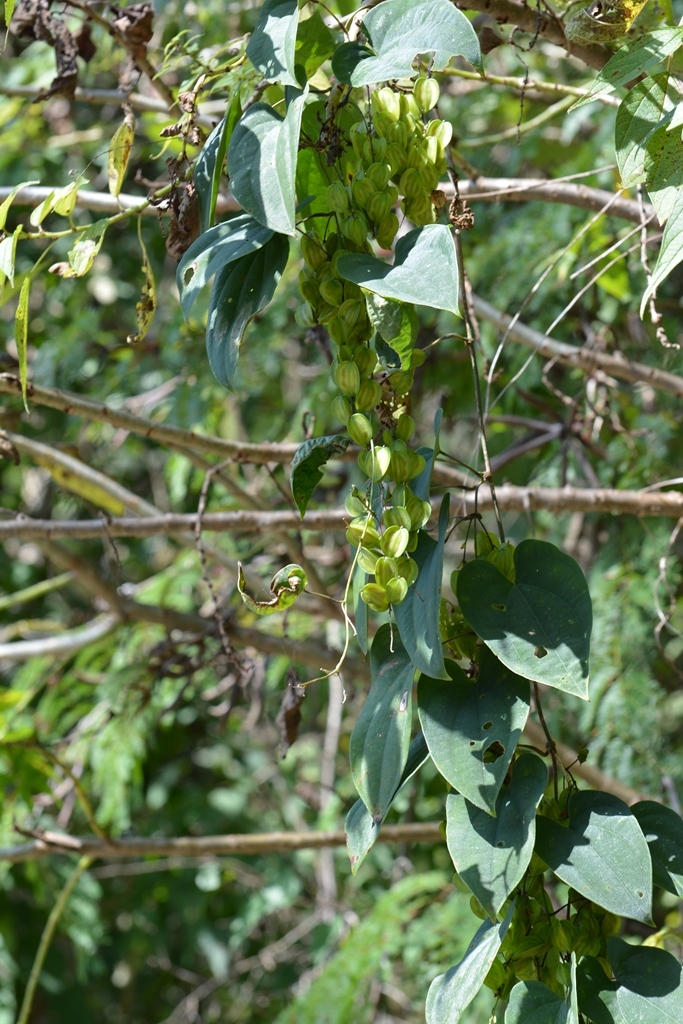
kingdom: Plantae
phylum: Tracheophyta
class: Liliopsida
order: Dioscoreales
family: Dioscoreaceae
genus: Dioscorea
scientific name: Dioscorea spiculiflora
